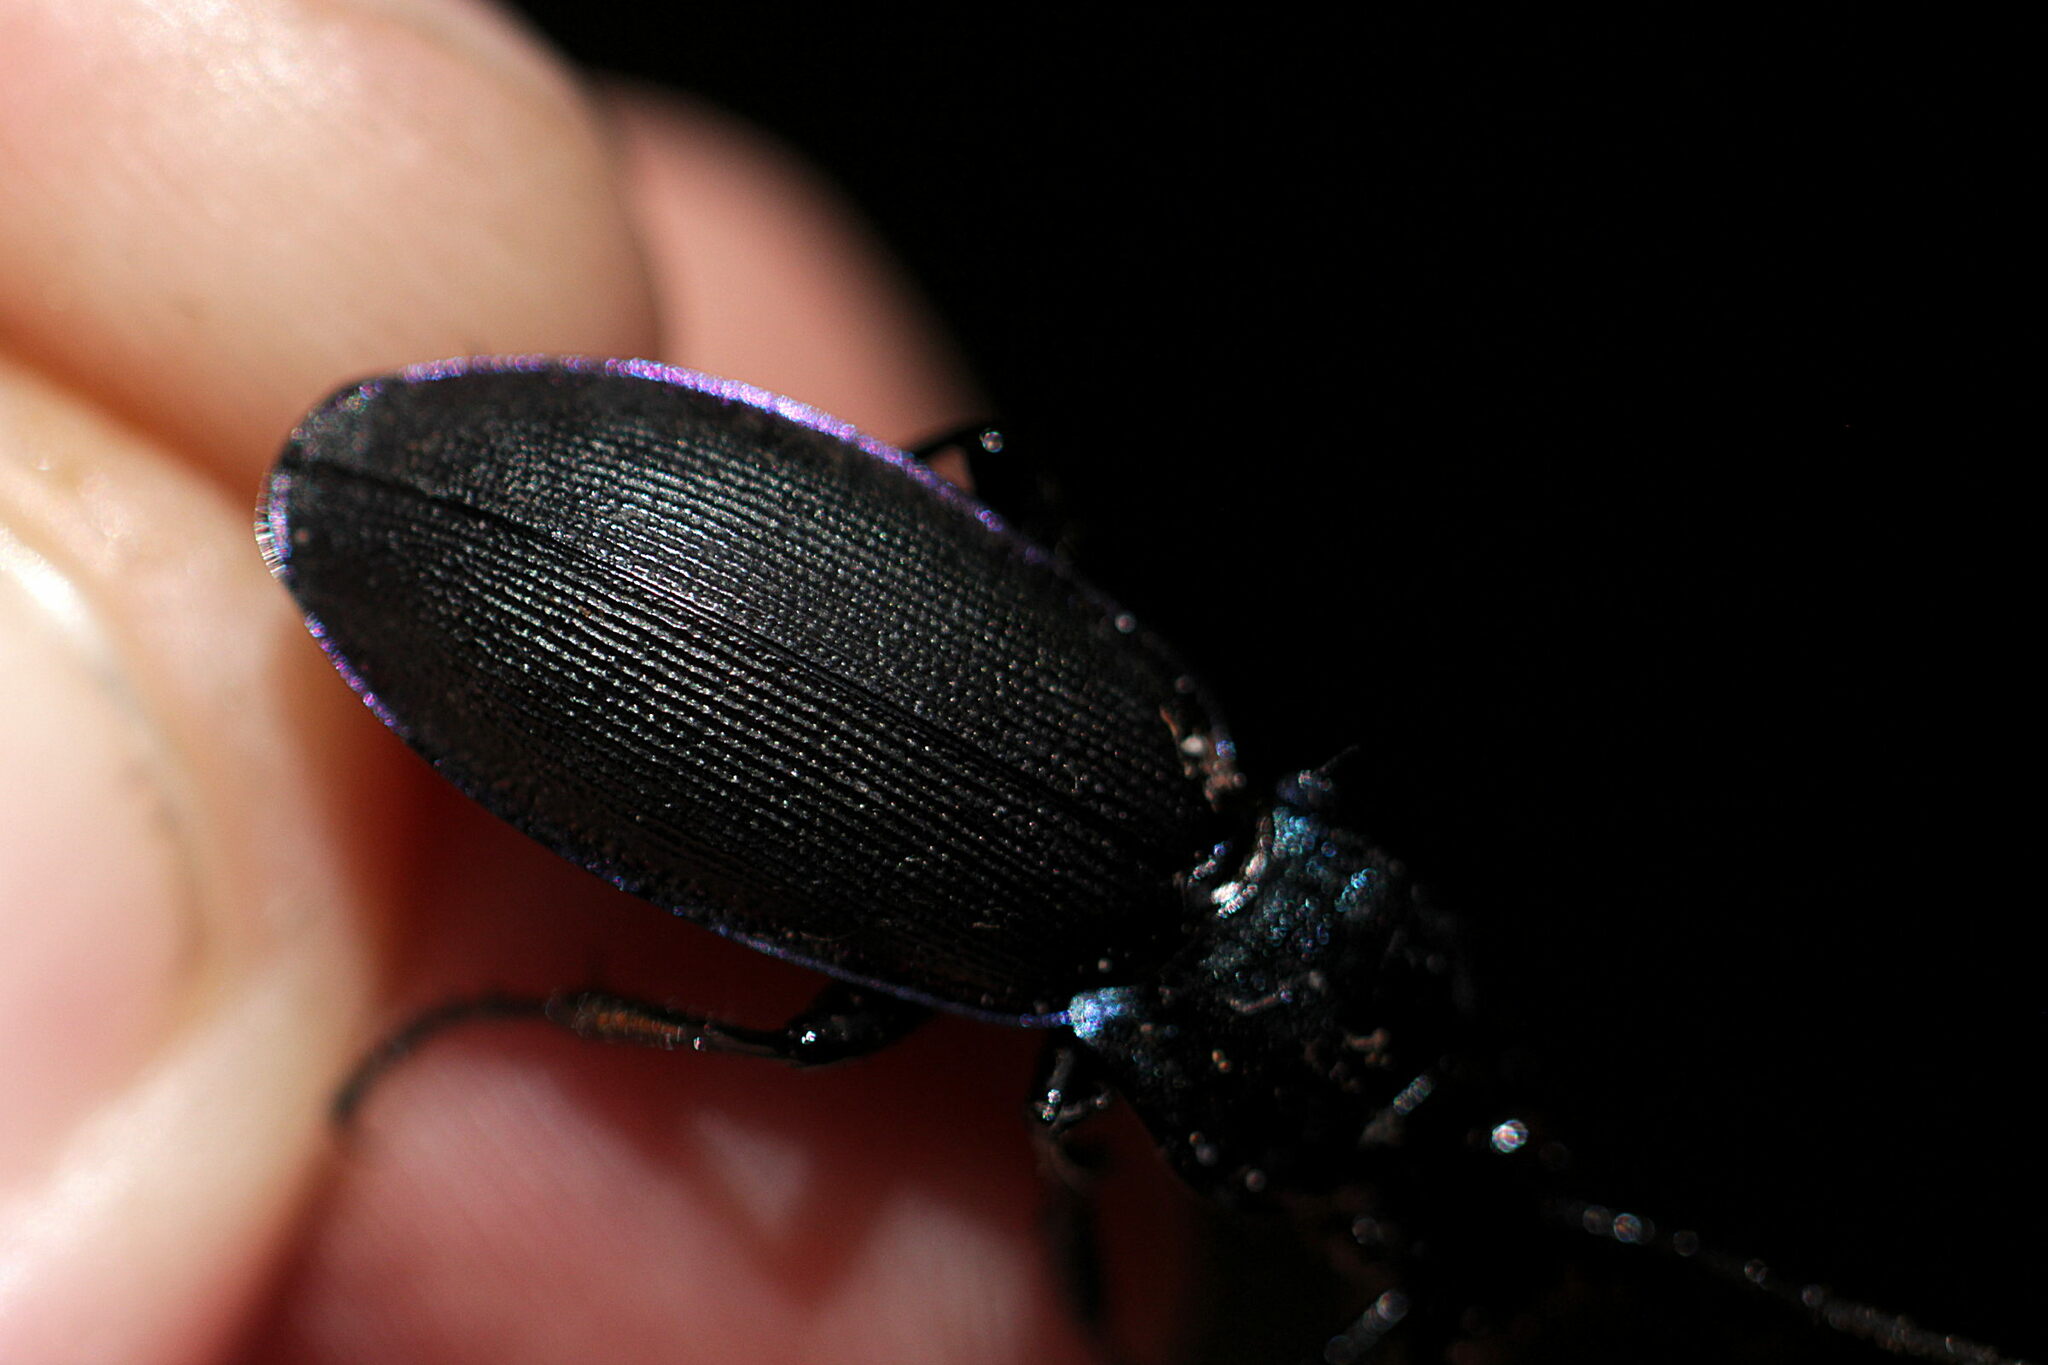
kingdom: Animalia
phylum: Arthropoda
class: Insecta
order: Coleoptera
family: Carabidae
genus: Carabus
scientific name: Carabus purpurascens
